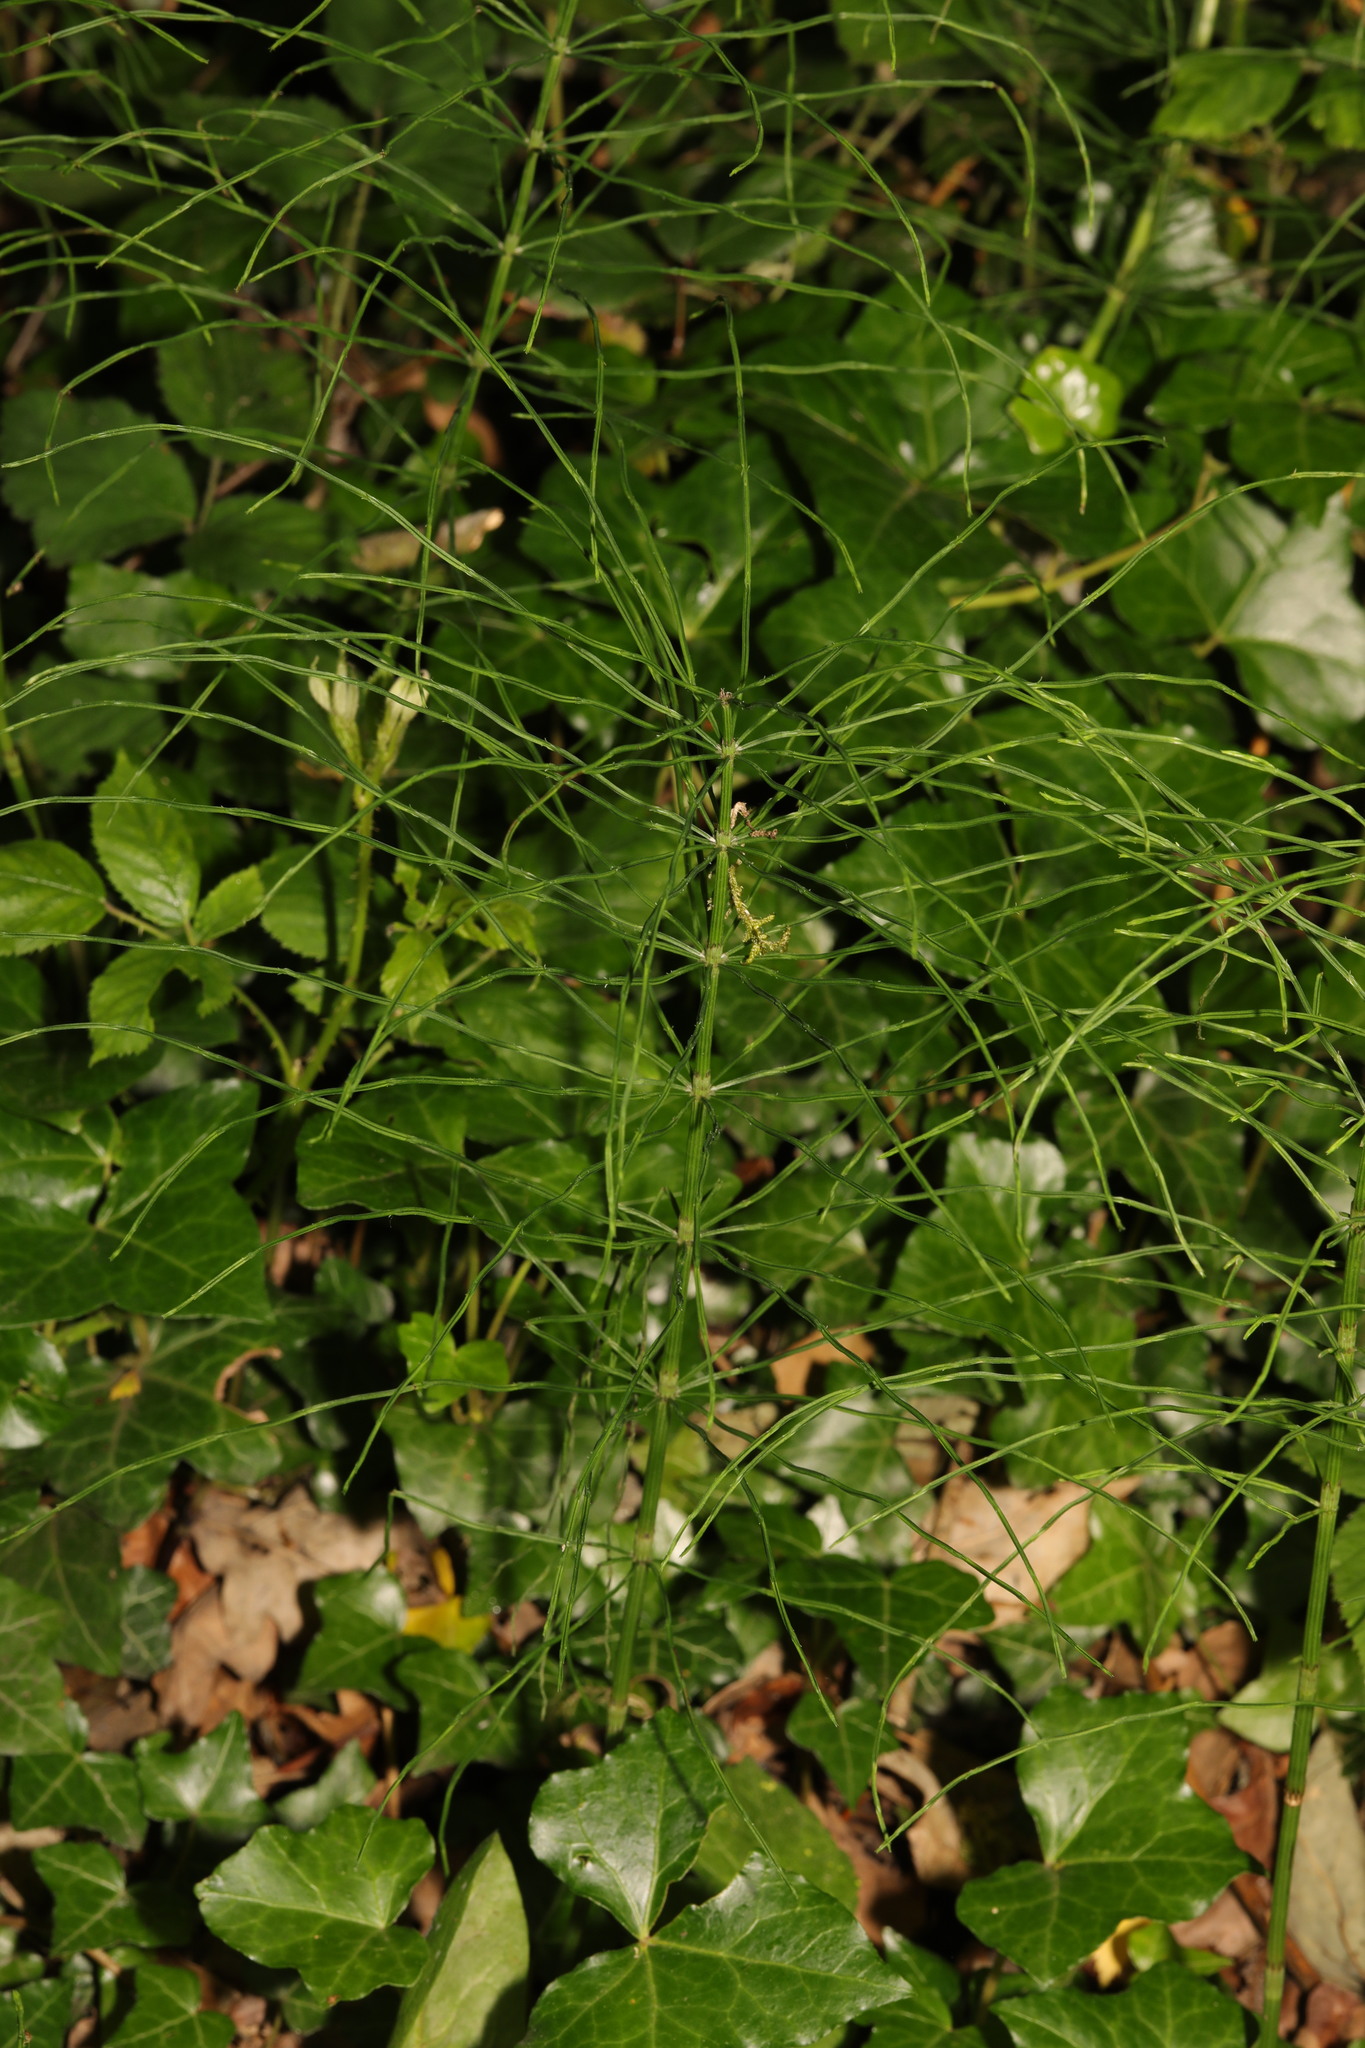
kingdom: Plantae
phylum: Tracheophyta
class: Polypodiopsida
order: Equisetales
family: Equisetaceae
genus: Equisetum
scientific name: Equisetum arvense
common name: Field horsetail
